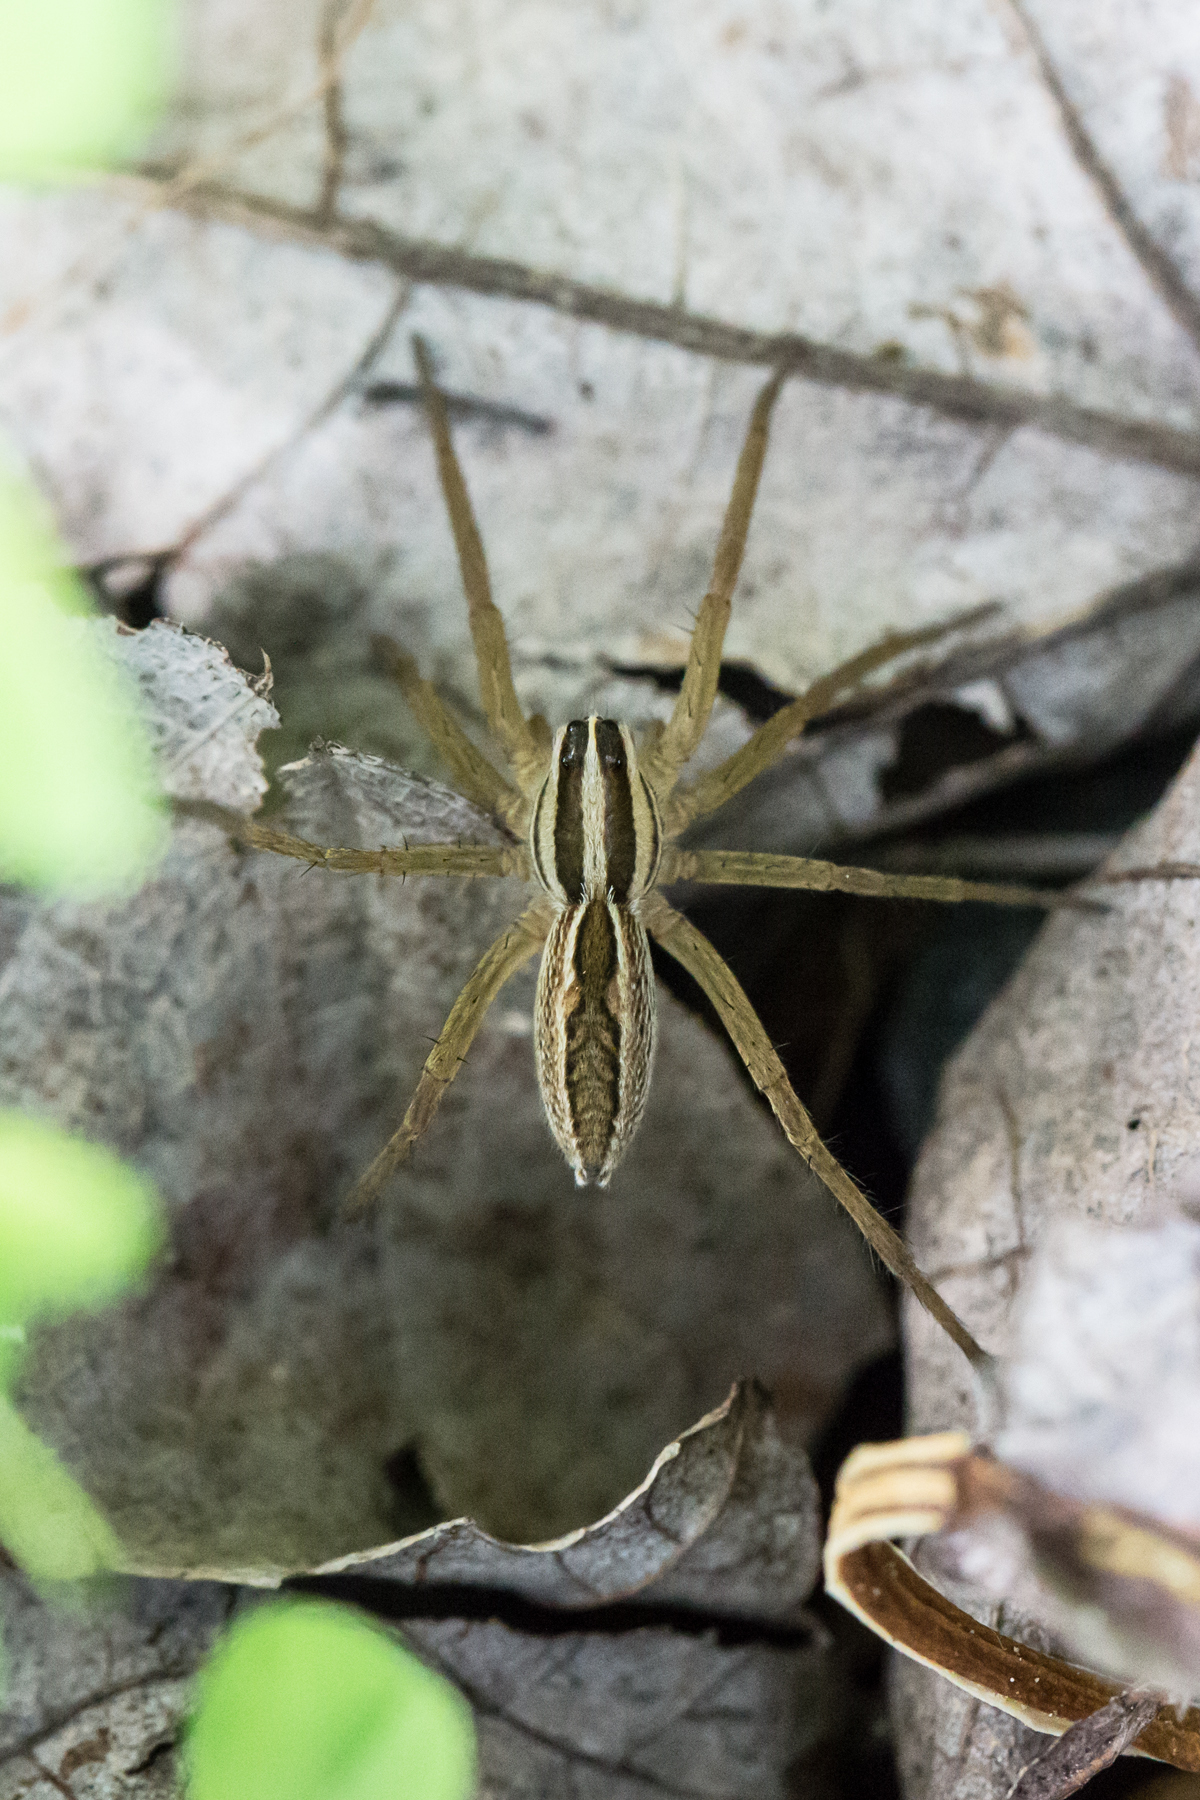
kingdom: Animalia
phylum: Arthropoda
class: Arachnida
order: Araneae
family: Lycosidae
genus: Rabidosa
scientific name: Rabidosa rabida
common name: Rabid wolf spider
